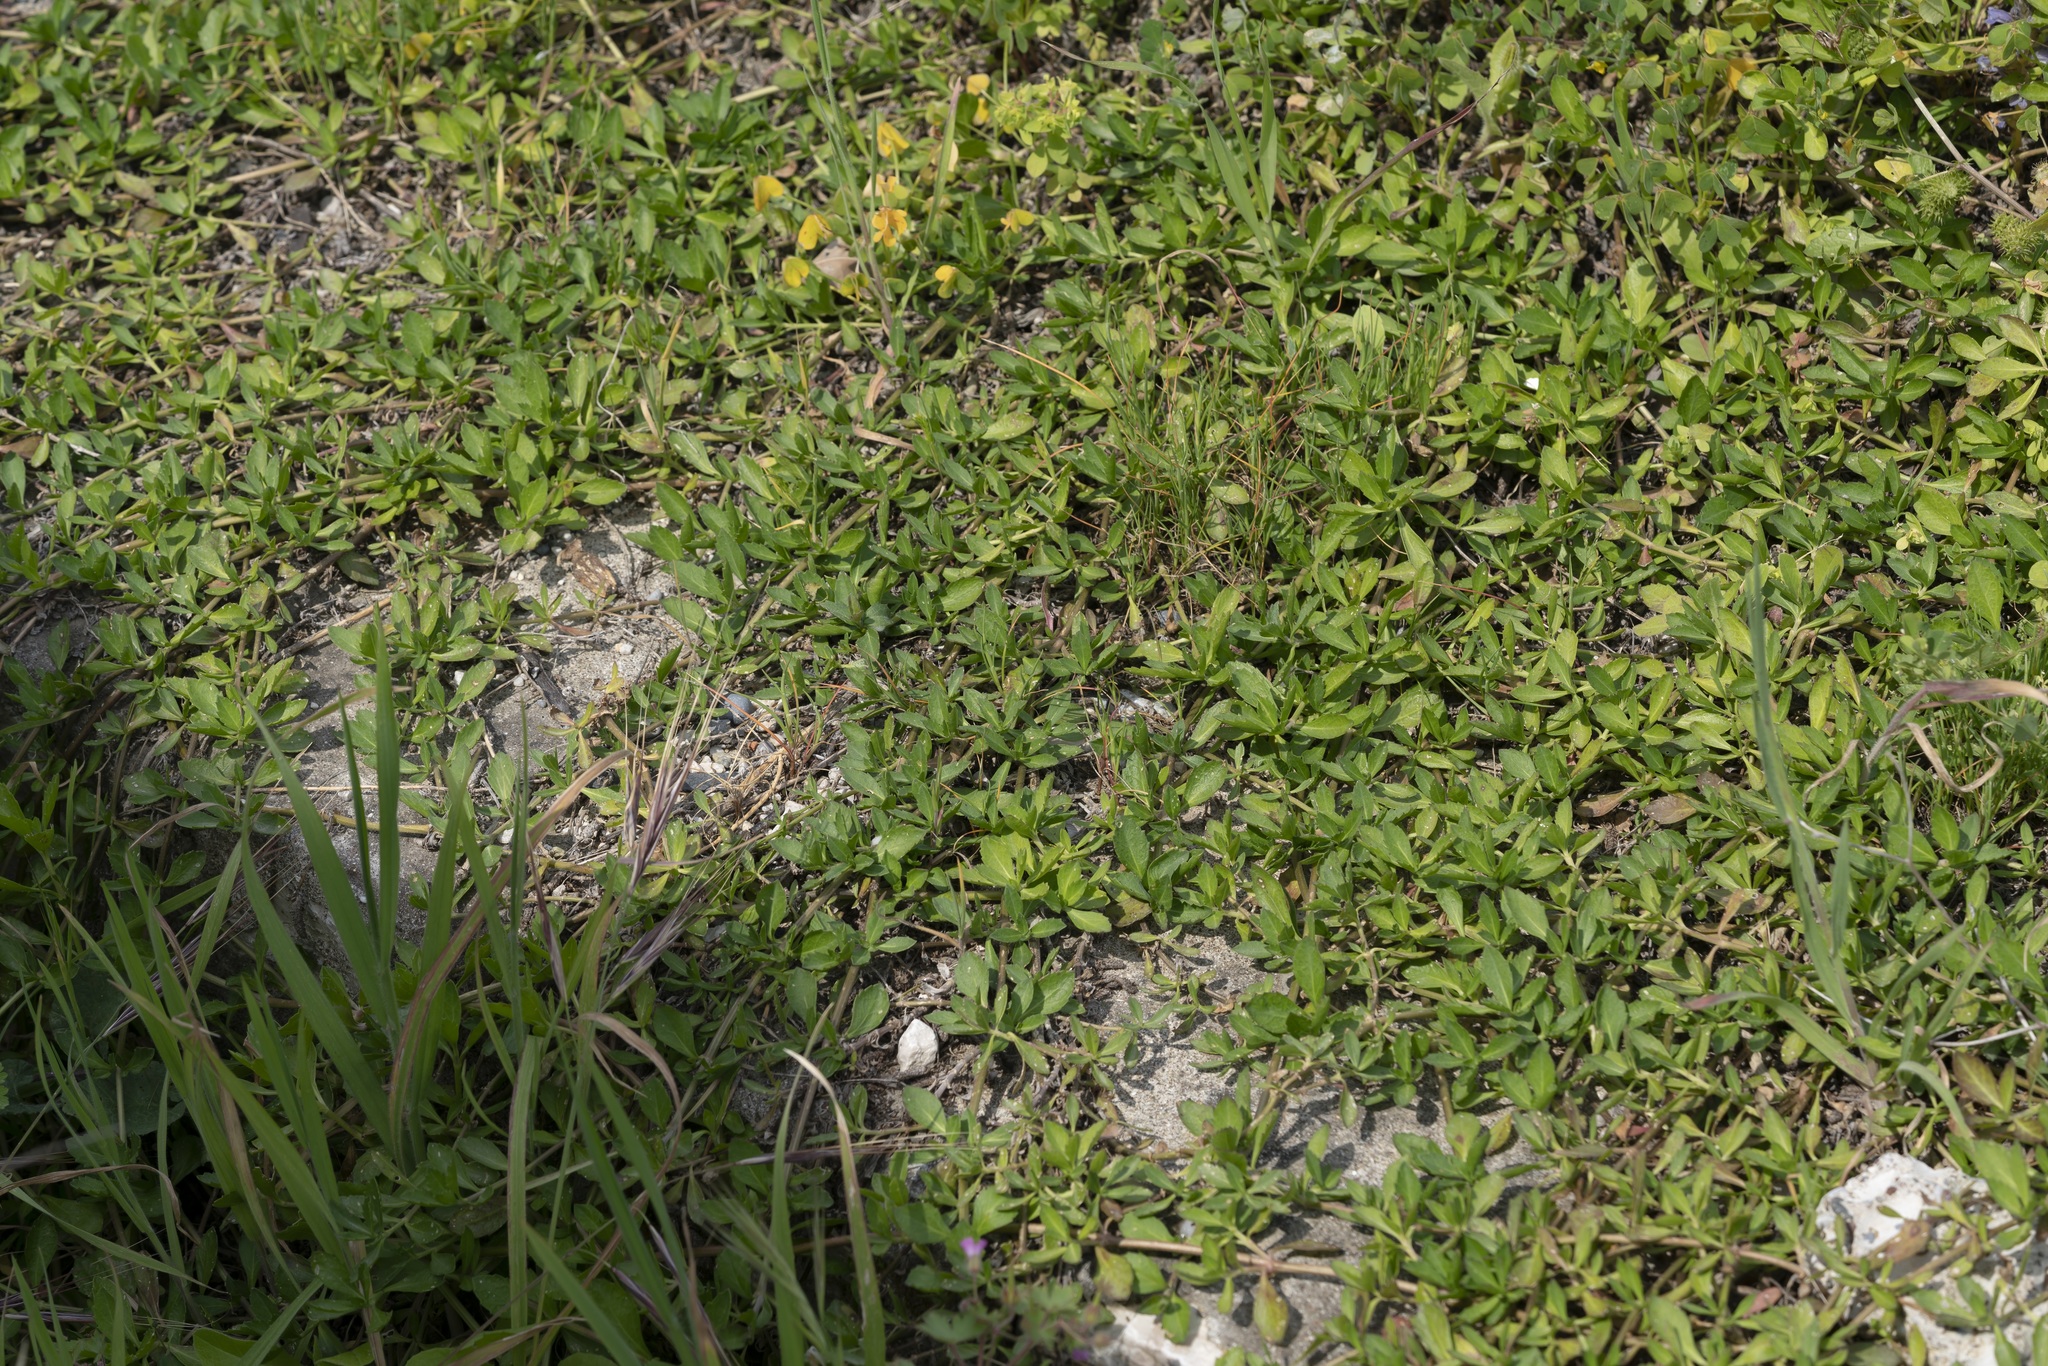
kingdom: Plantae
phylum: Tracheophyta
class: Magnoliopsida
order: Lamiales
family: Verbenaceae
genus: Phyla
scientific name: Phyla nodiflora
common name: Frogfruit
